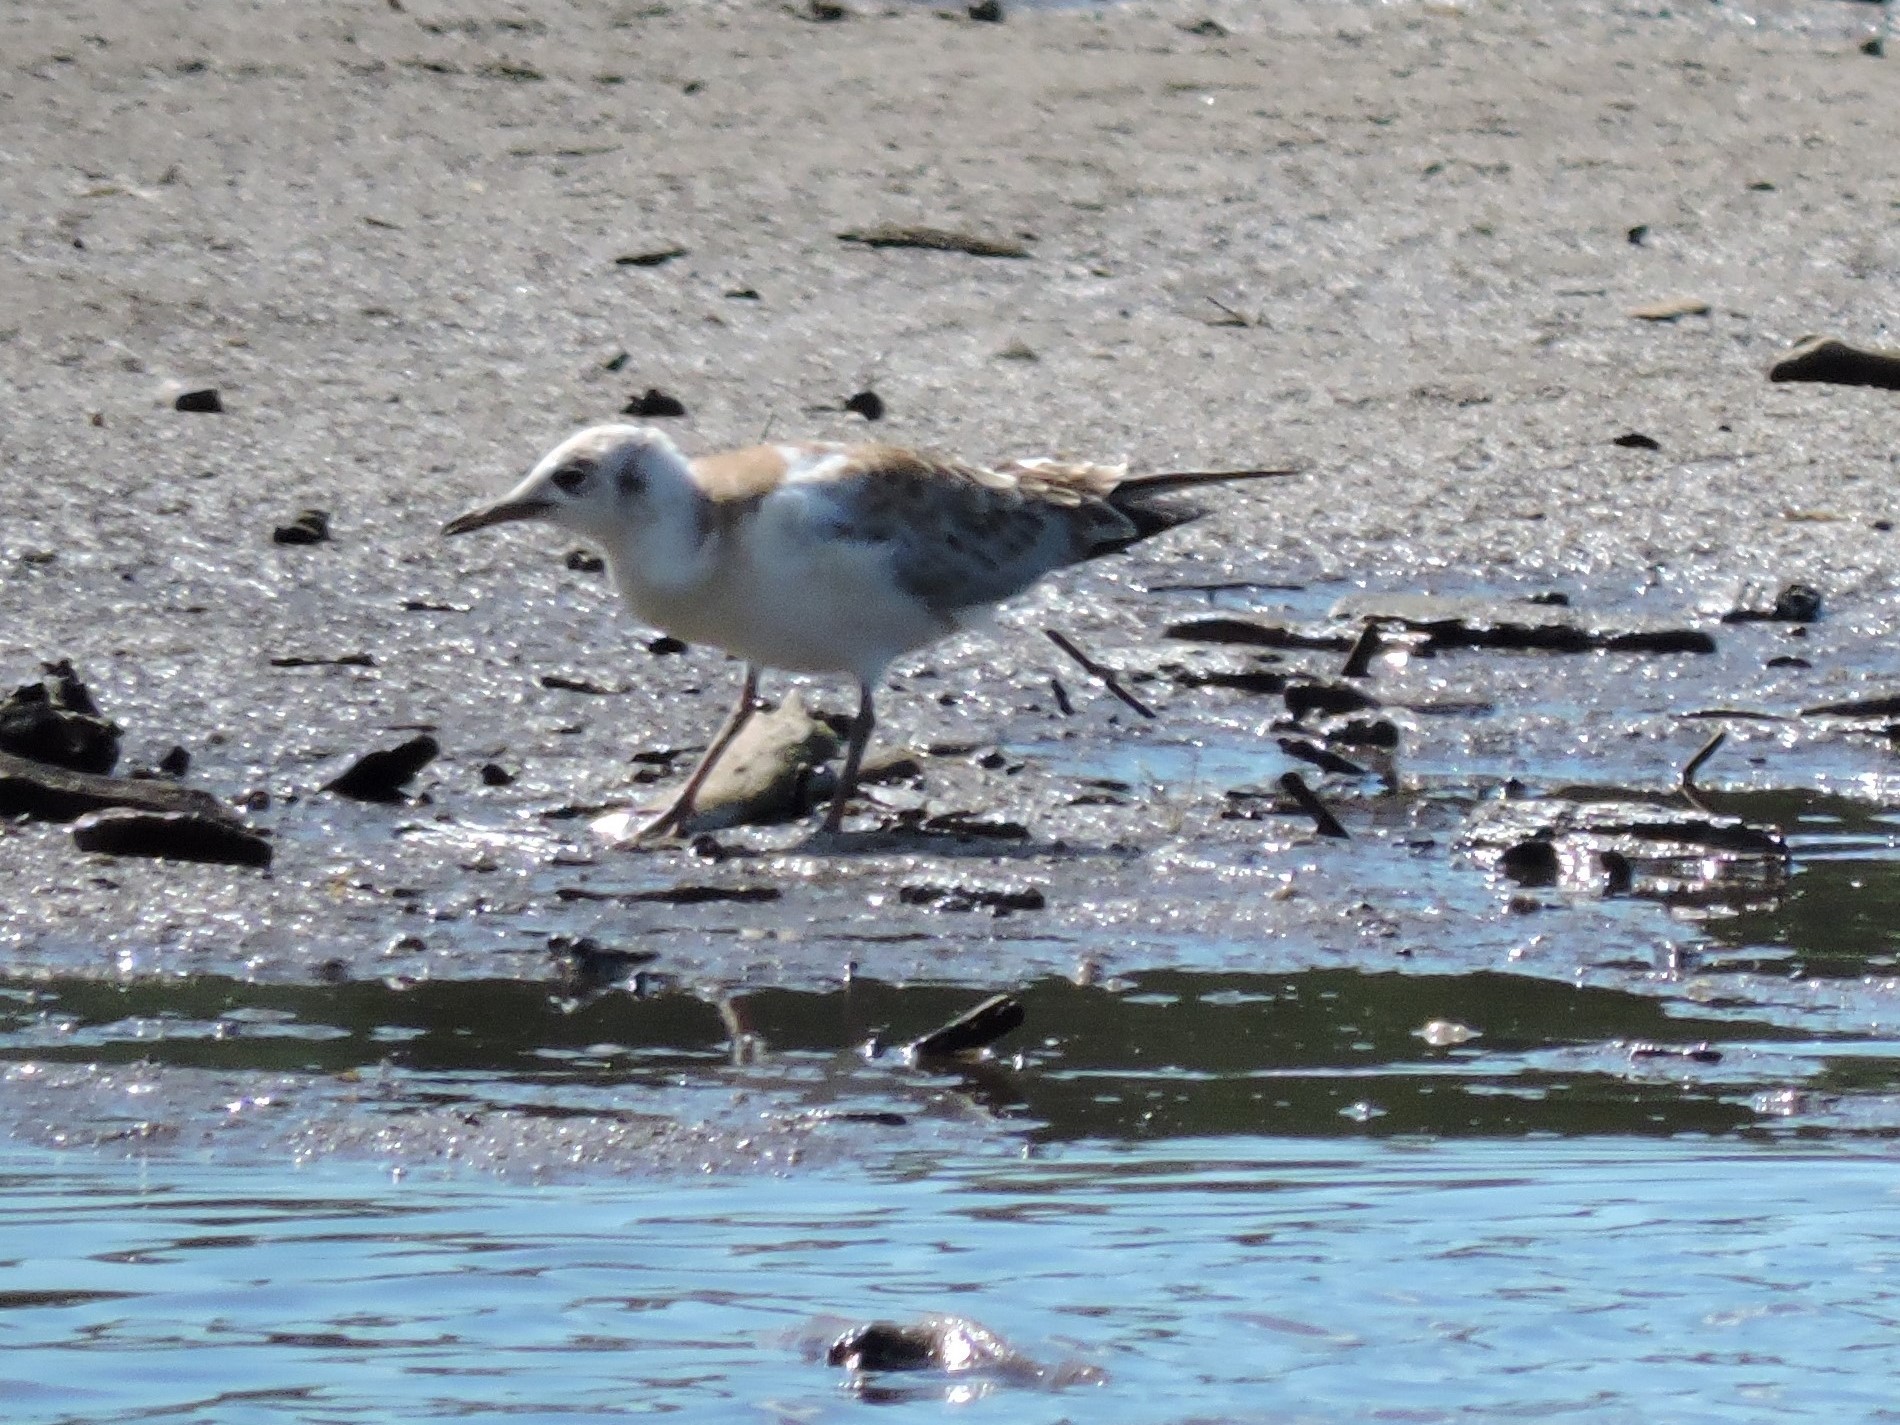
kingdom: Animalia
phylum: Chordata
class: Aves
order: Charadriiformes
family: Laridae
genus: Chroicocephalus
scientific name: Chroicocephalus ridibundus
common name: Black-headed gull
